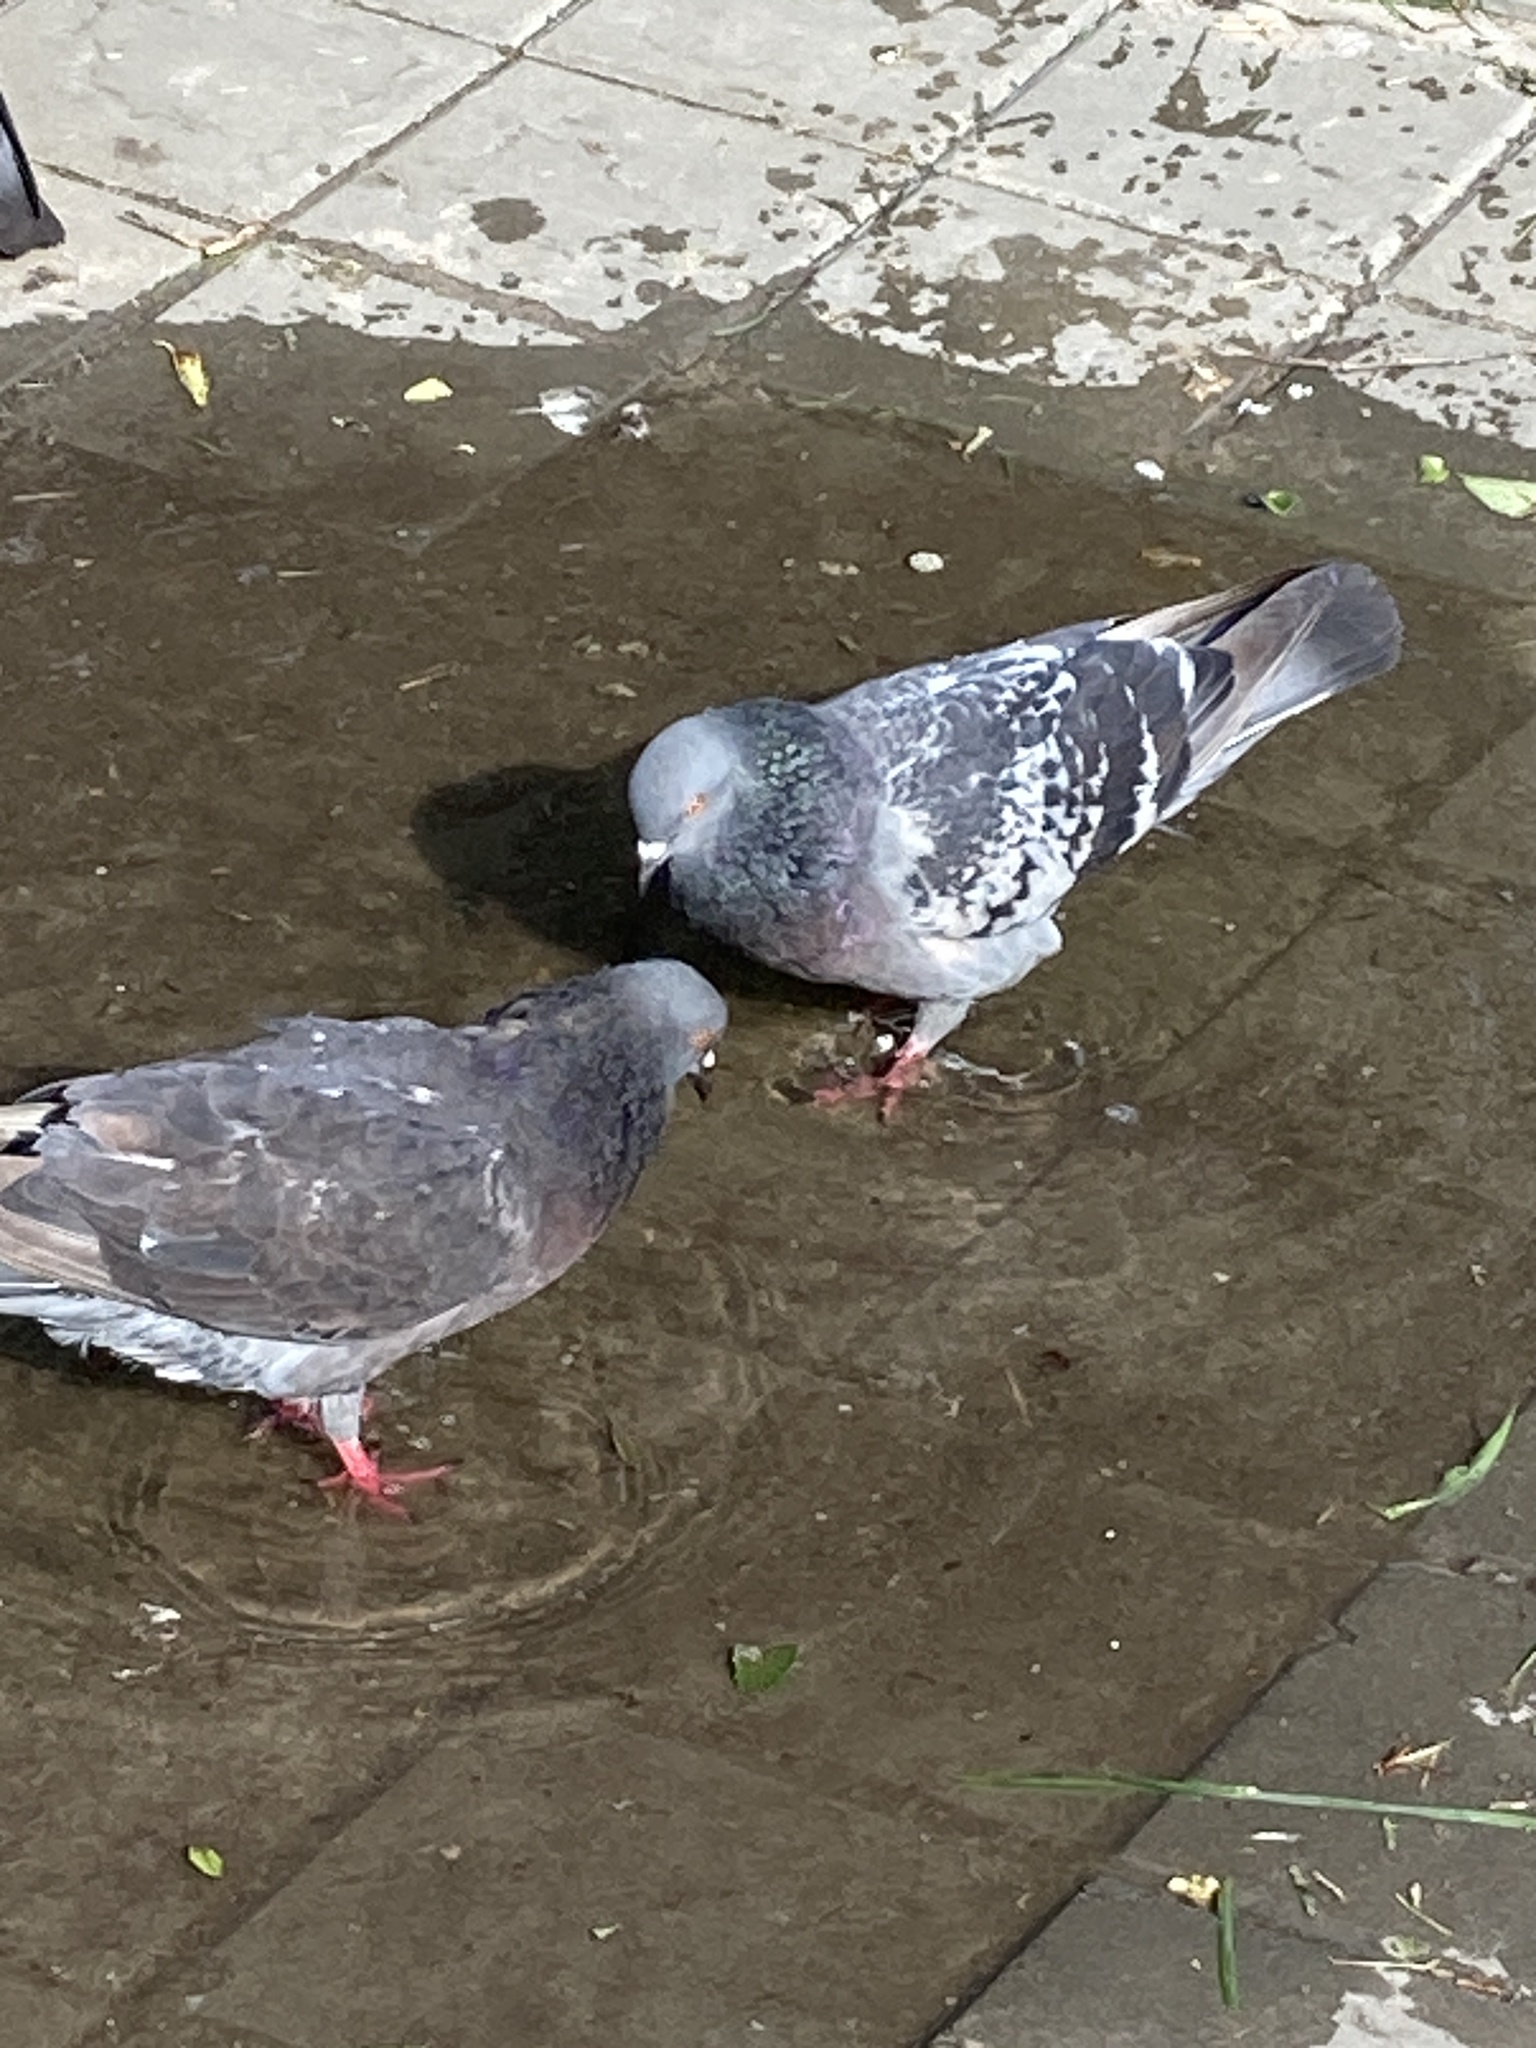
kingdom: Animalia
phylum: Chordata
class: Aves
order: Columbiformes
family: Columbidae
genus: Columba
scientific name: Columba livia
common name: Rock pigeon
